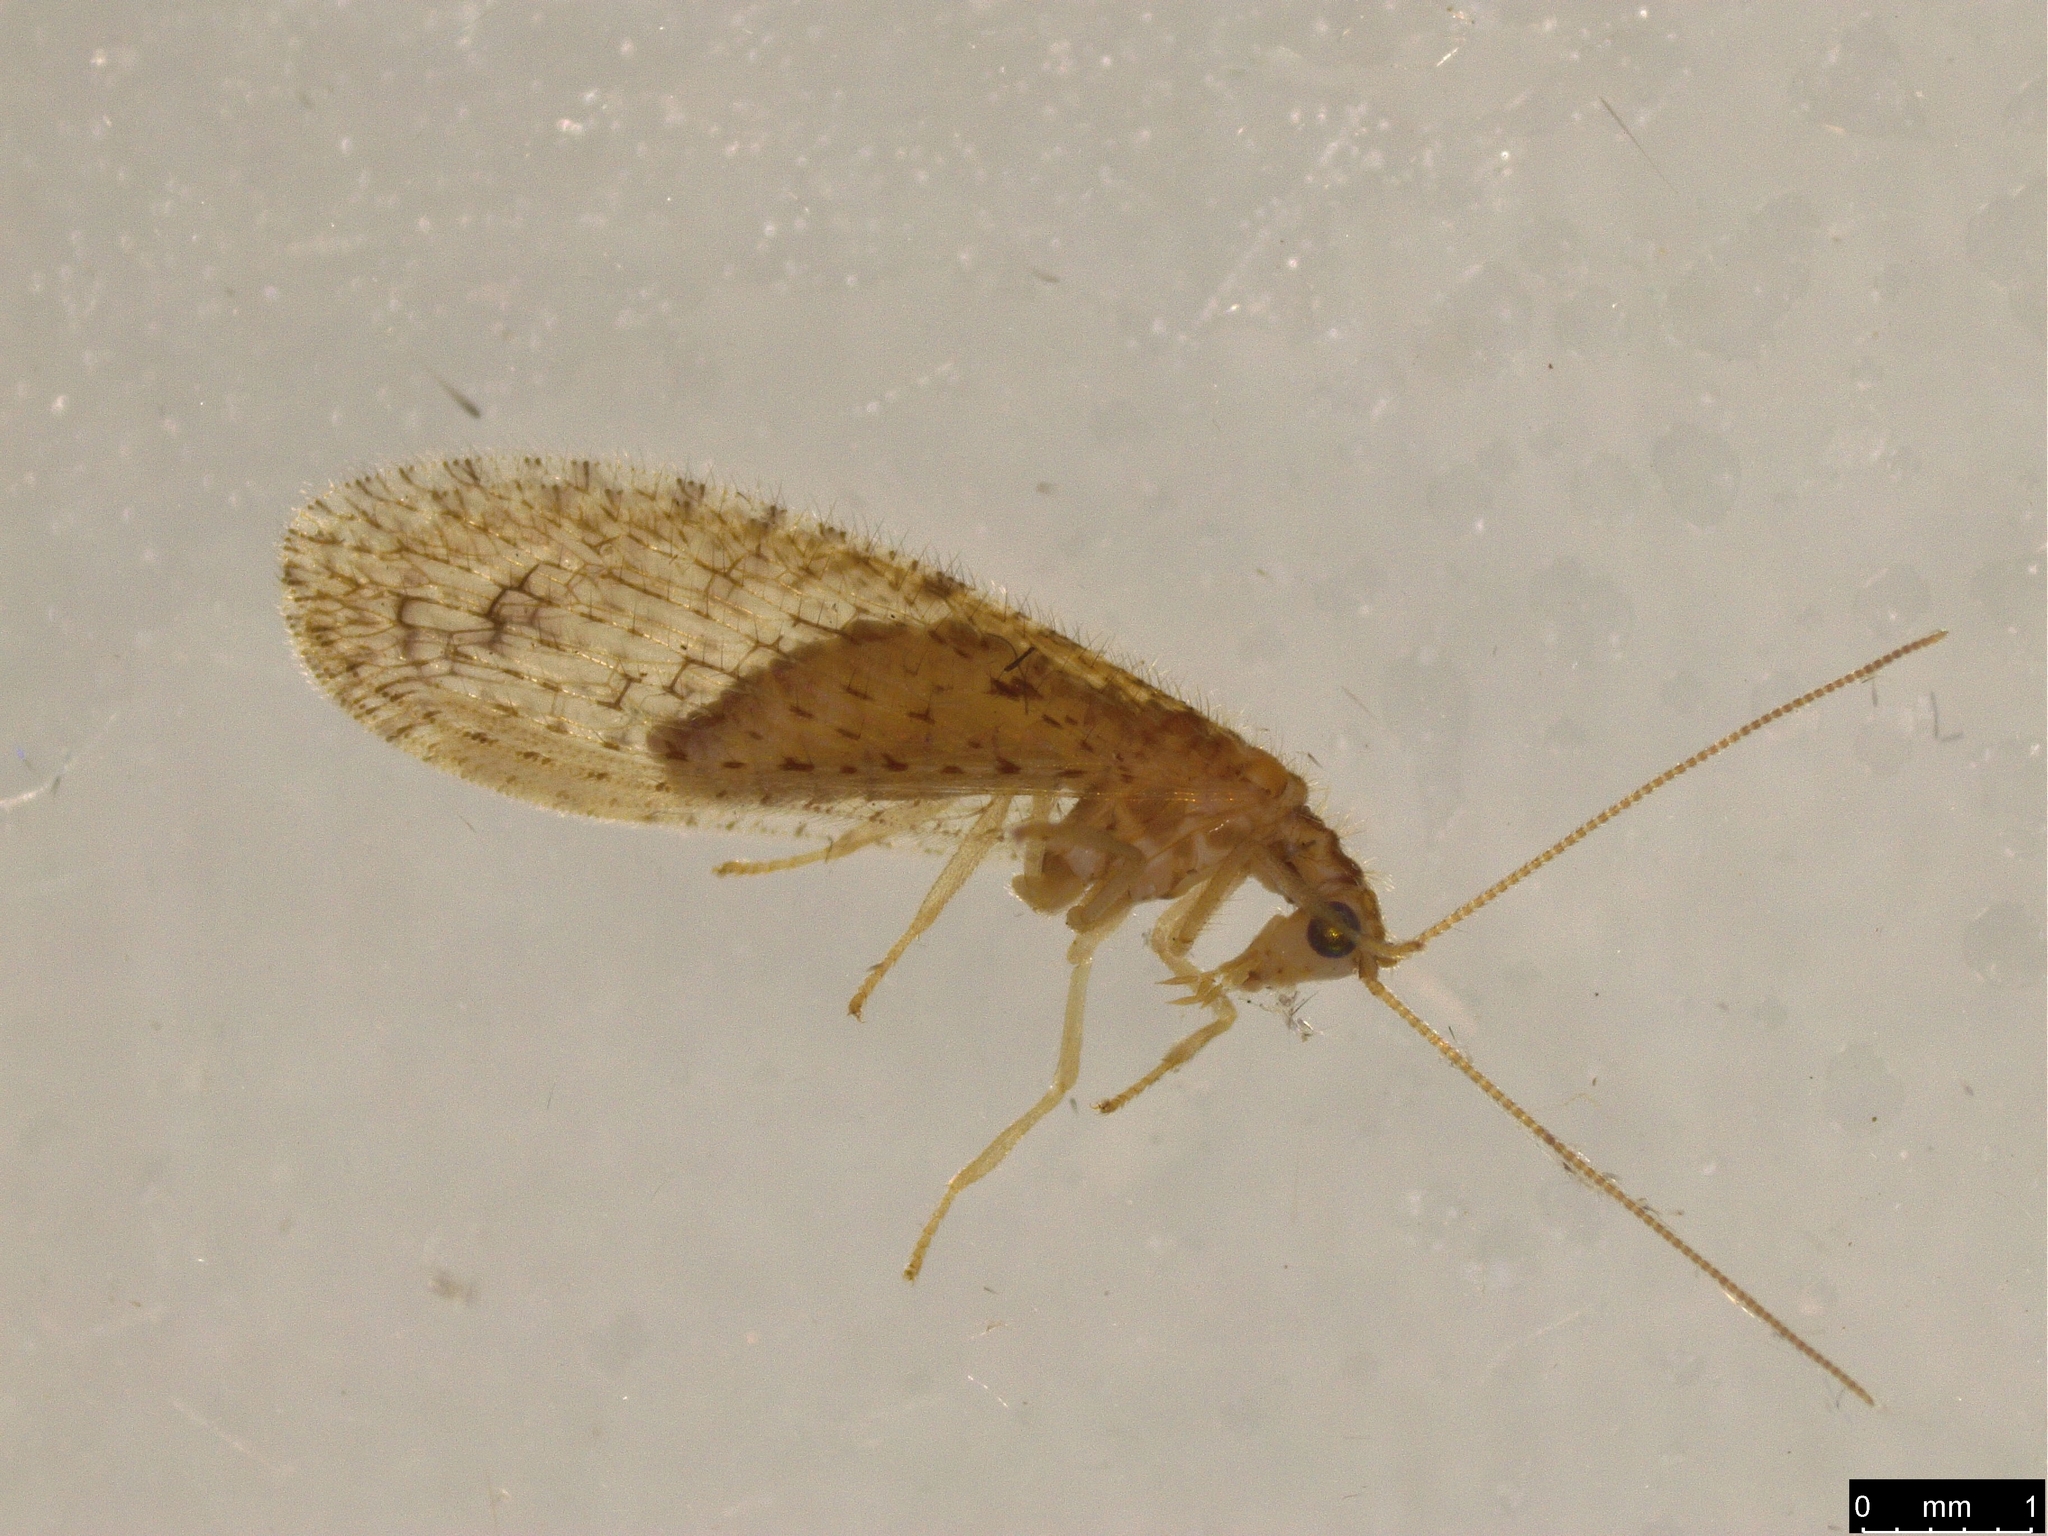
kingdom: Animalia
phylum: Arthropoda
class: Insecta
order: Neuroptera
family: Hemerobiidae
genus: Micromus
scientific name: Micromus tasmaniae
